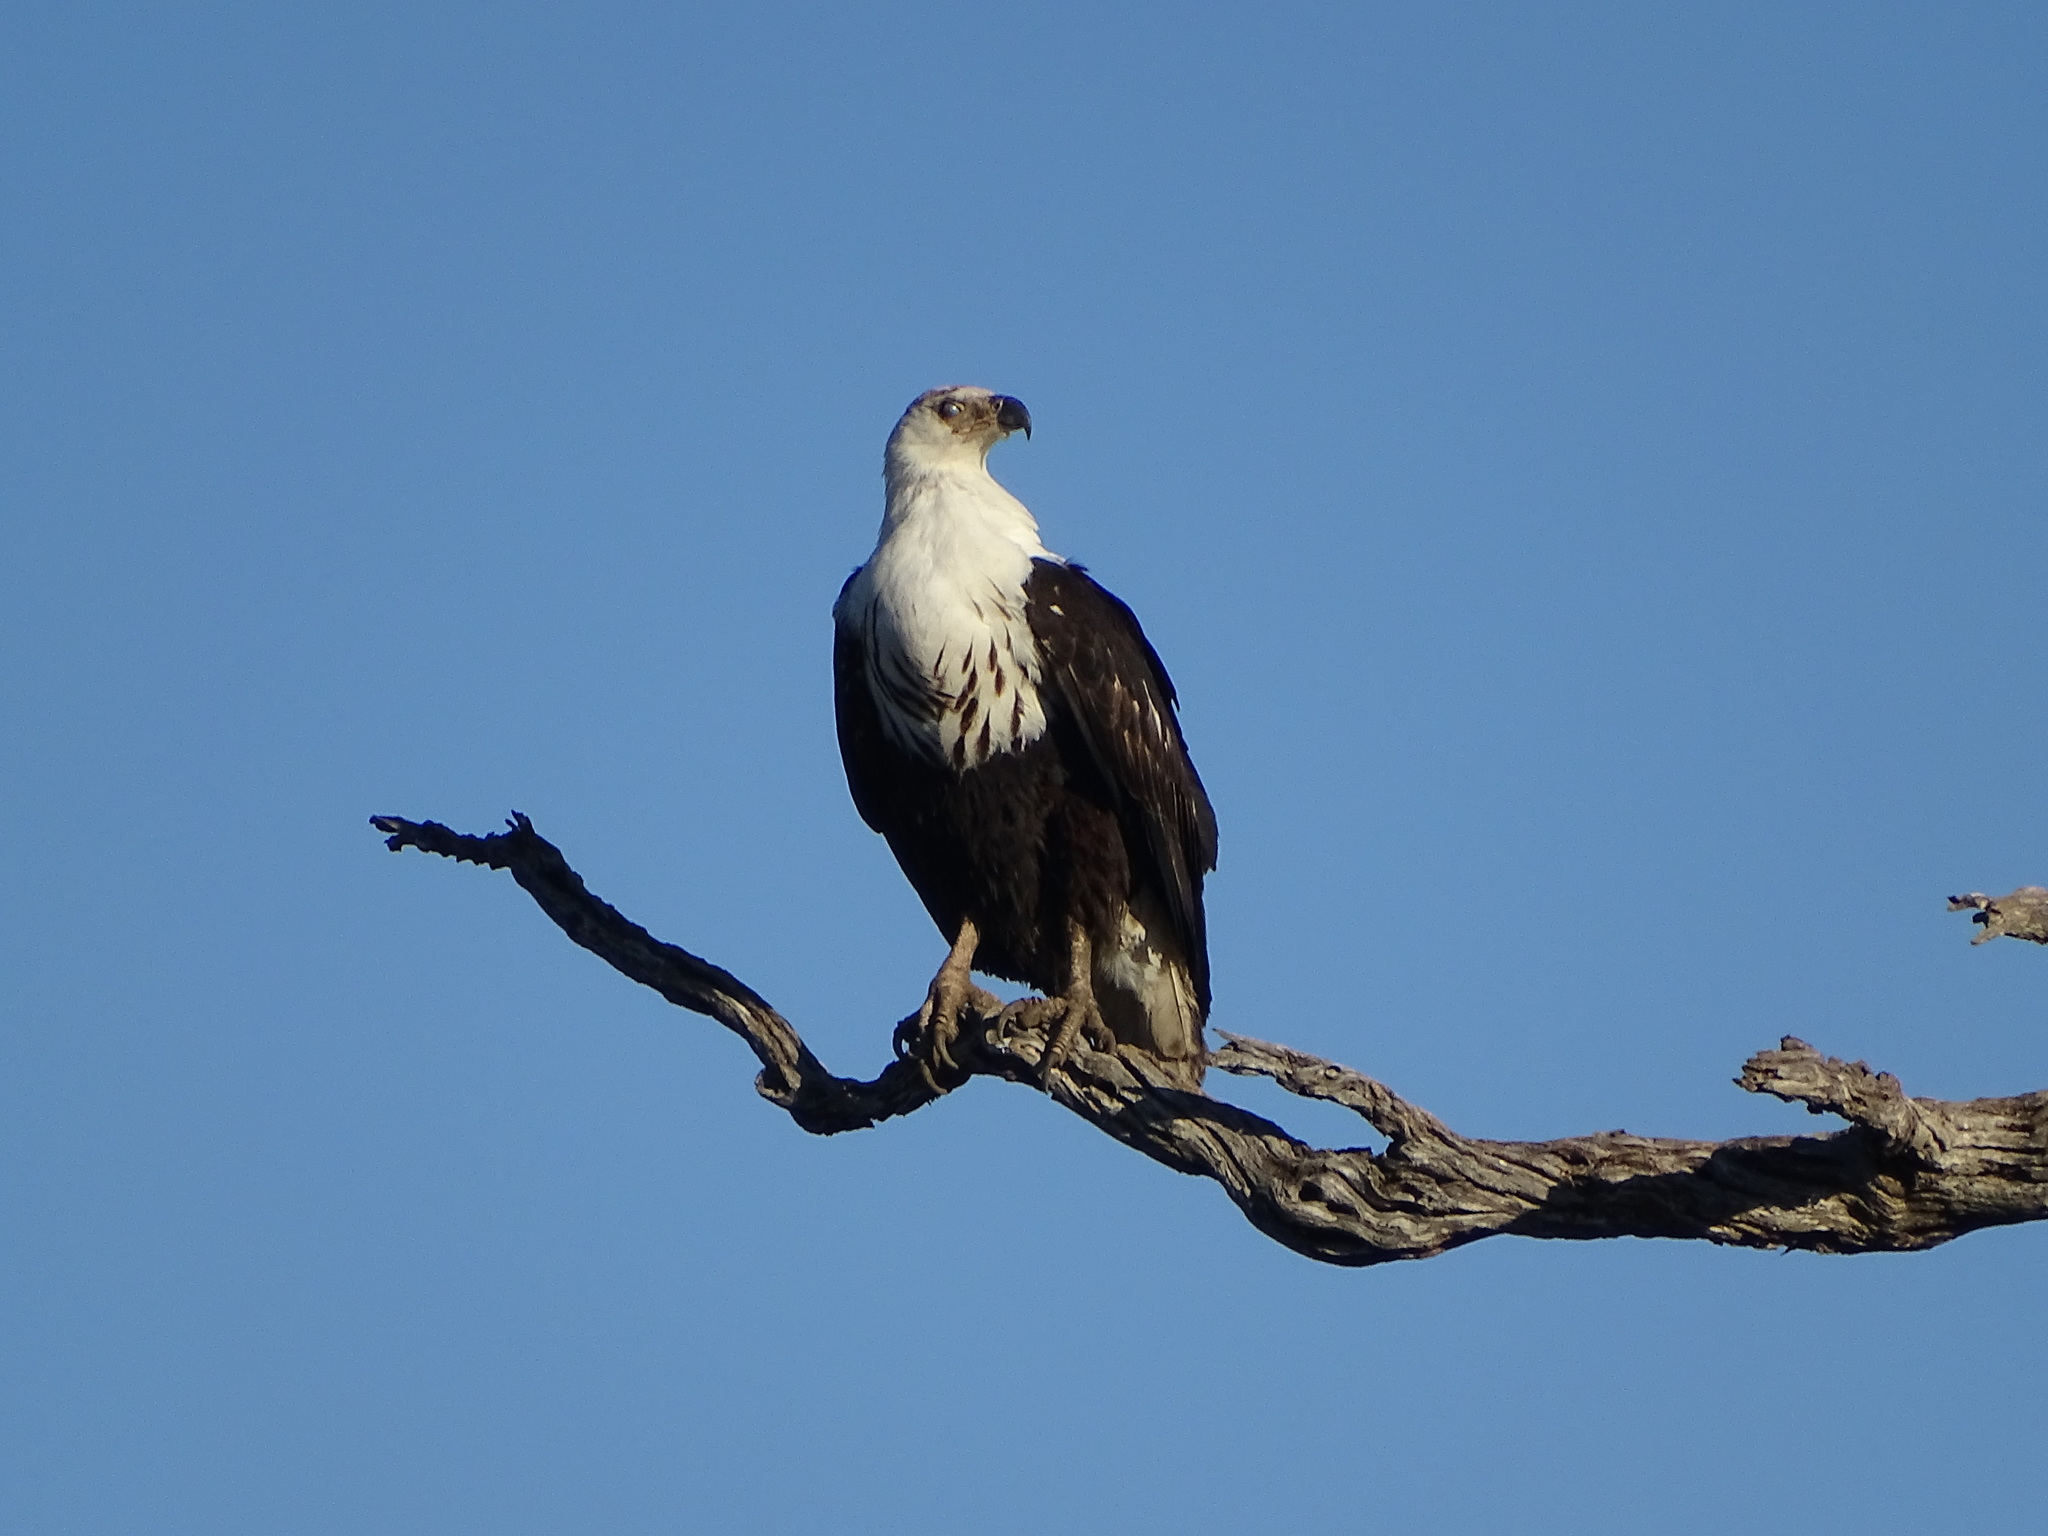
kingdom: Animalia
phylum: Chordata
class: Aves
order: Accipitriformes
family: Accipitridae
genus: Haliaeetus
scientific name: Haliaeetus vocifer
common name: African fish eagle
